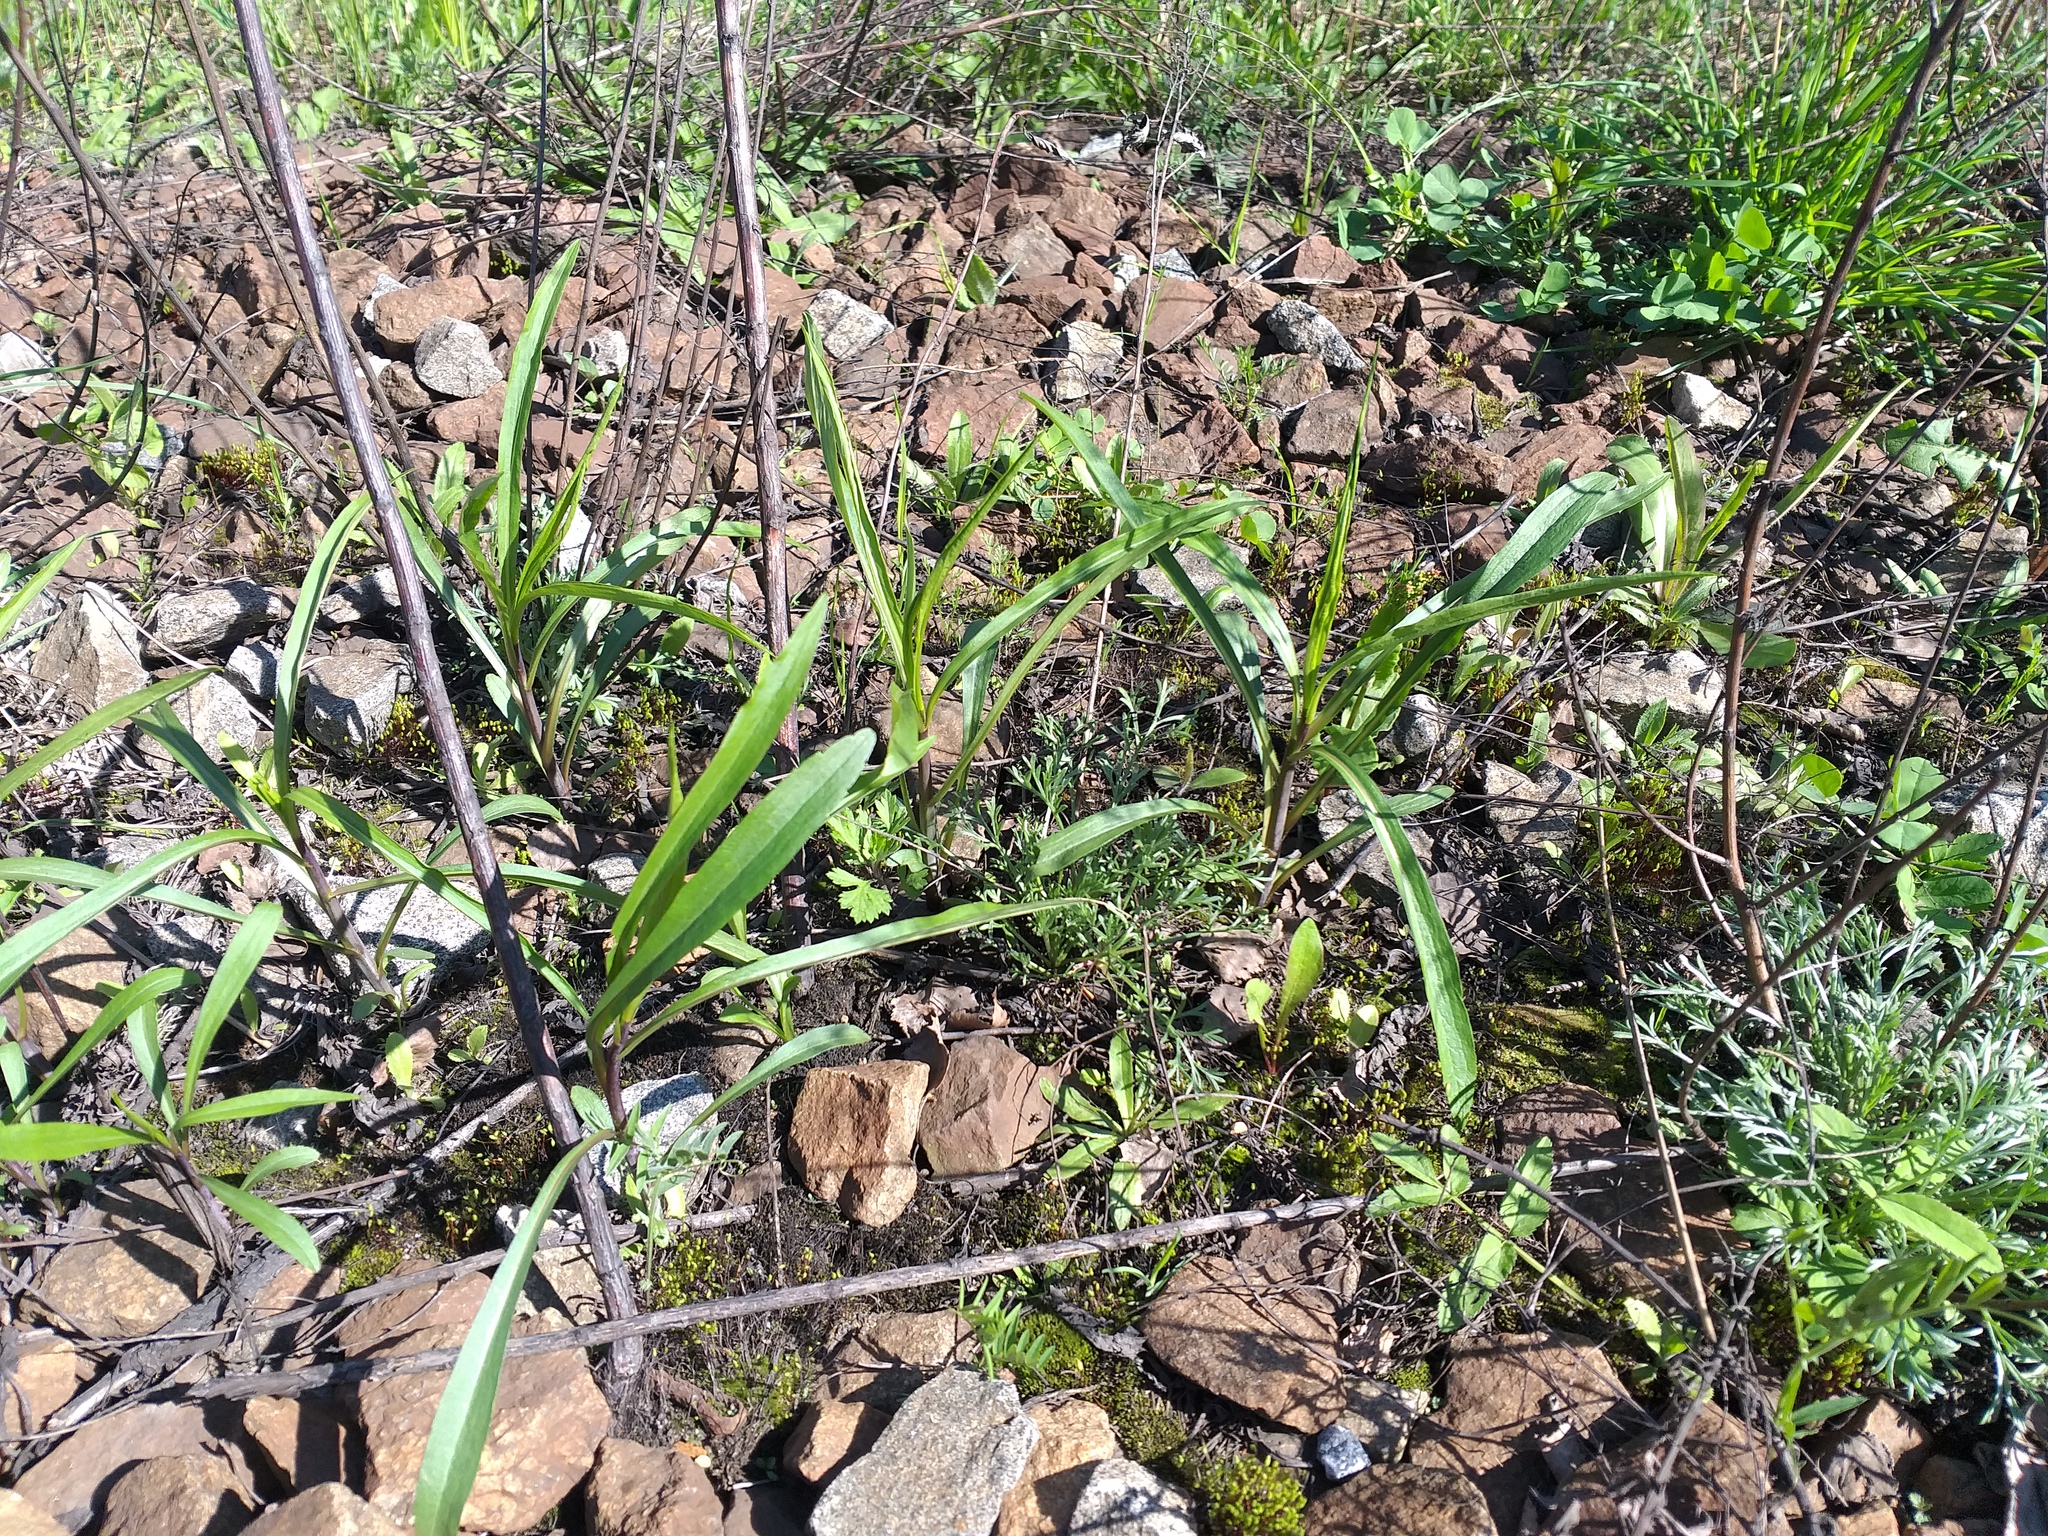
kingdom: Plantae
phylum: Tracheophyta
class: Magnoliopsida
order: Asterales
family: Asteraceae
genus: Solidago
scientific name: Solidago gigantea
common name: Giant goldenrod
